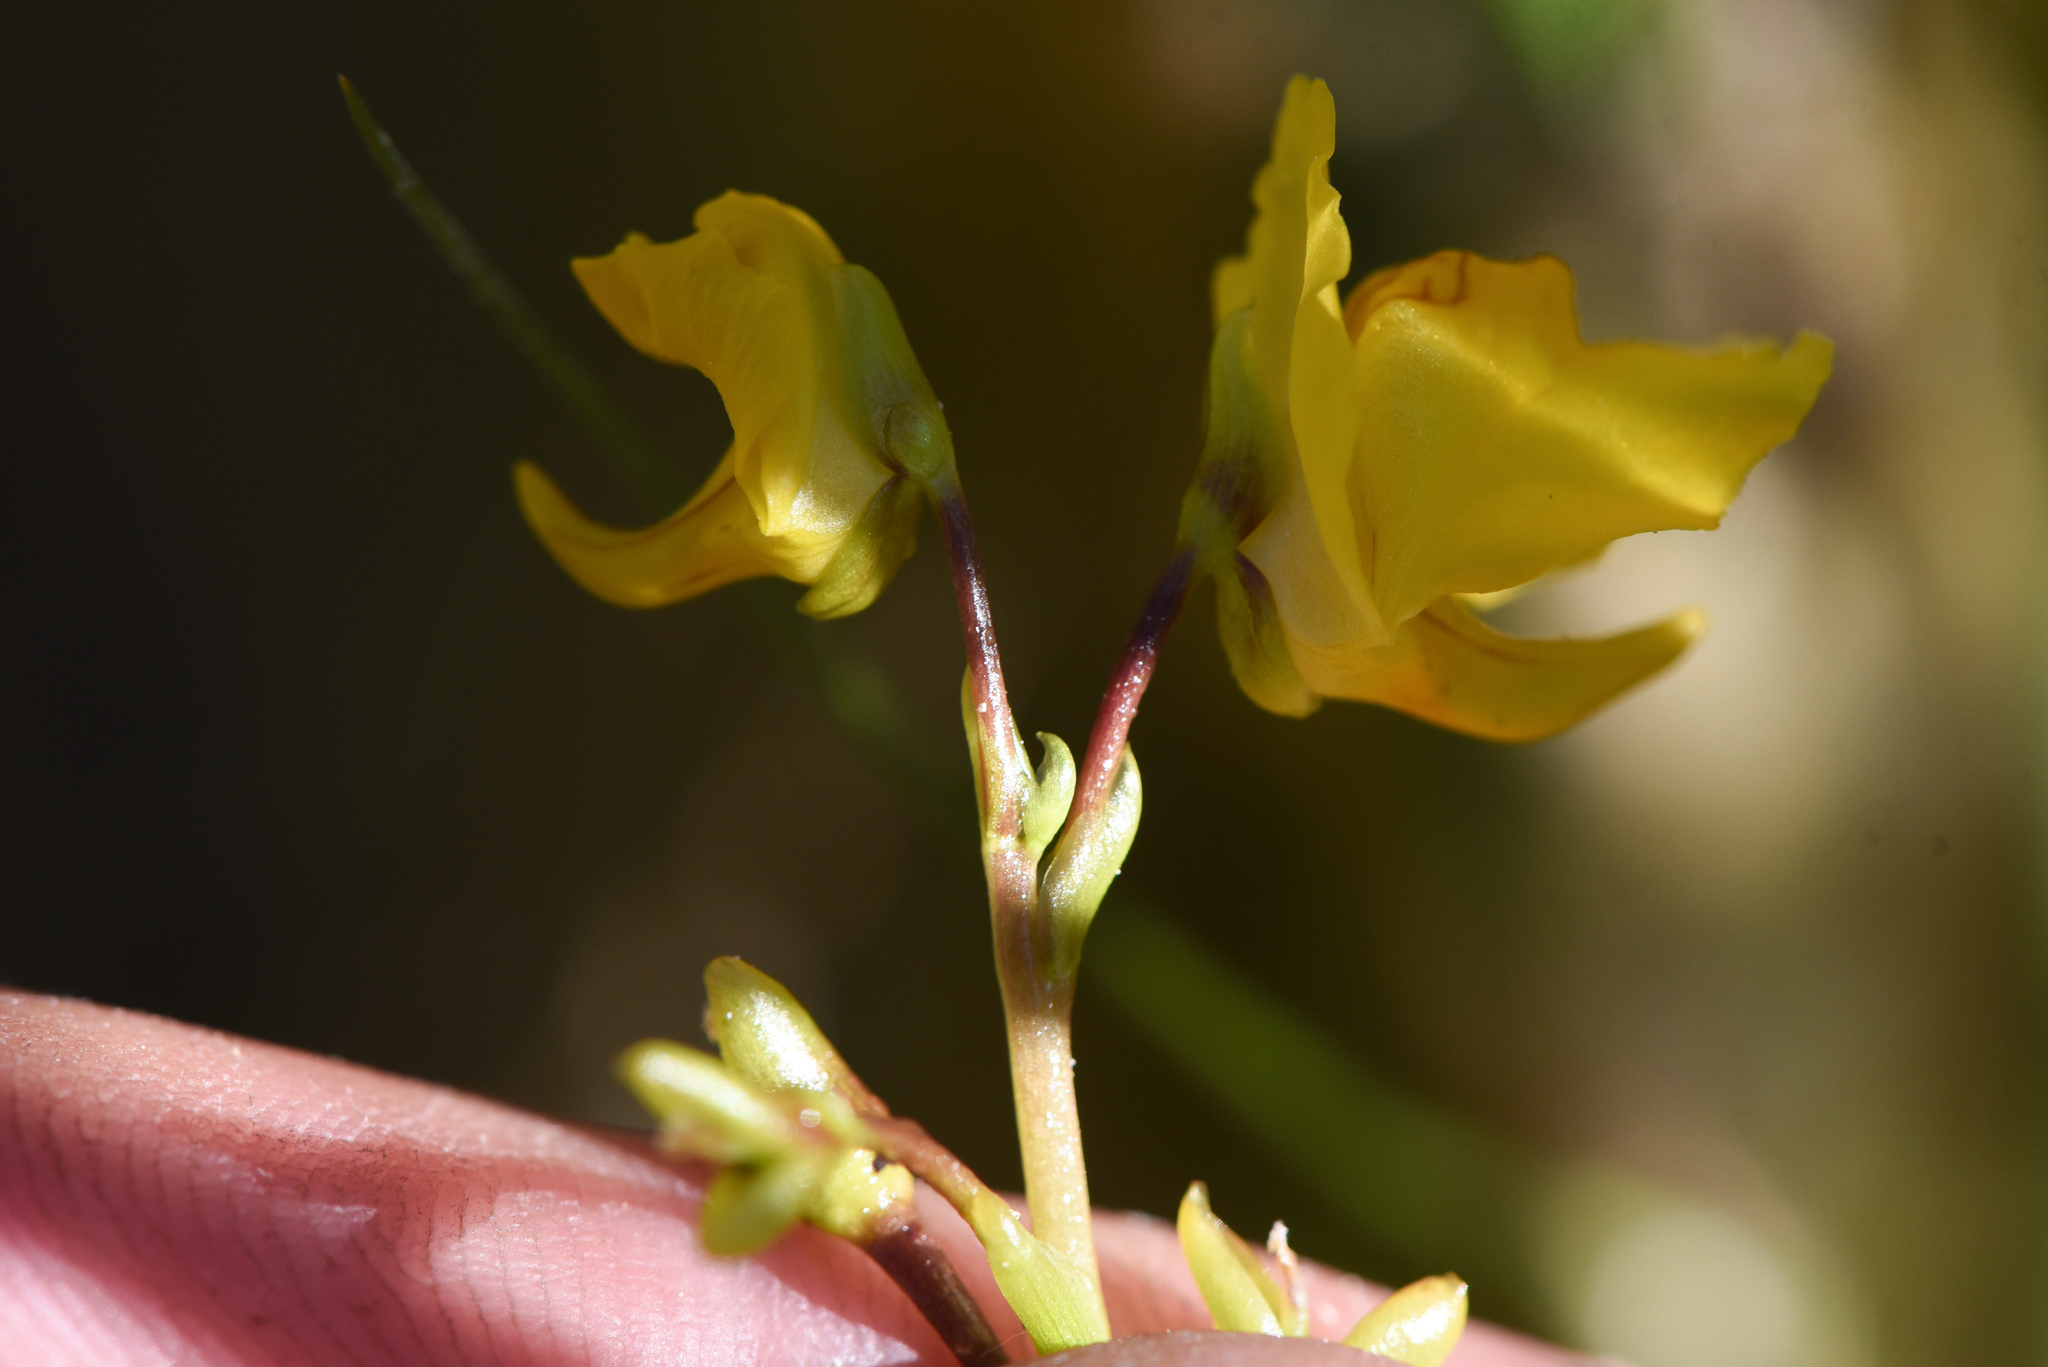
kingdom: Plantae
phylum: Tracheophyta
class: Magnoliopsida
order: Lamiales
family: Lentibulariaceae
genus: Utricularia
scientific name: Utricularia macrorhiza
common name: Common bladderwort
